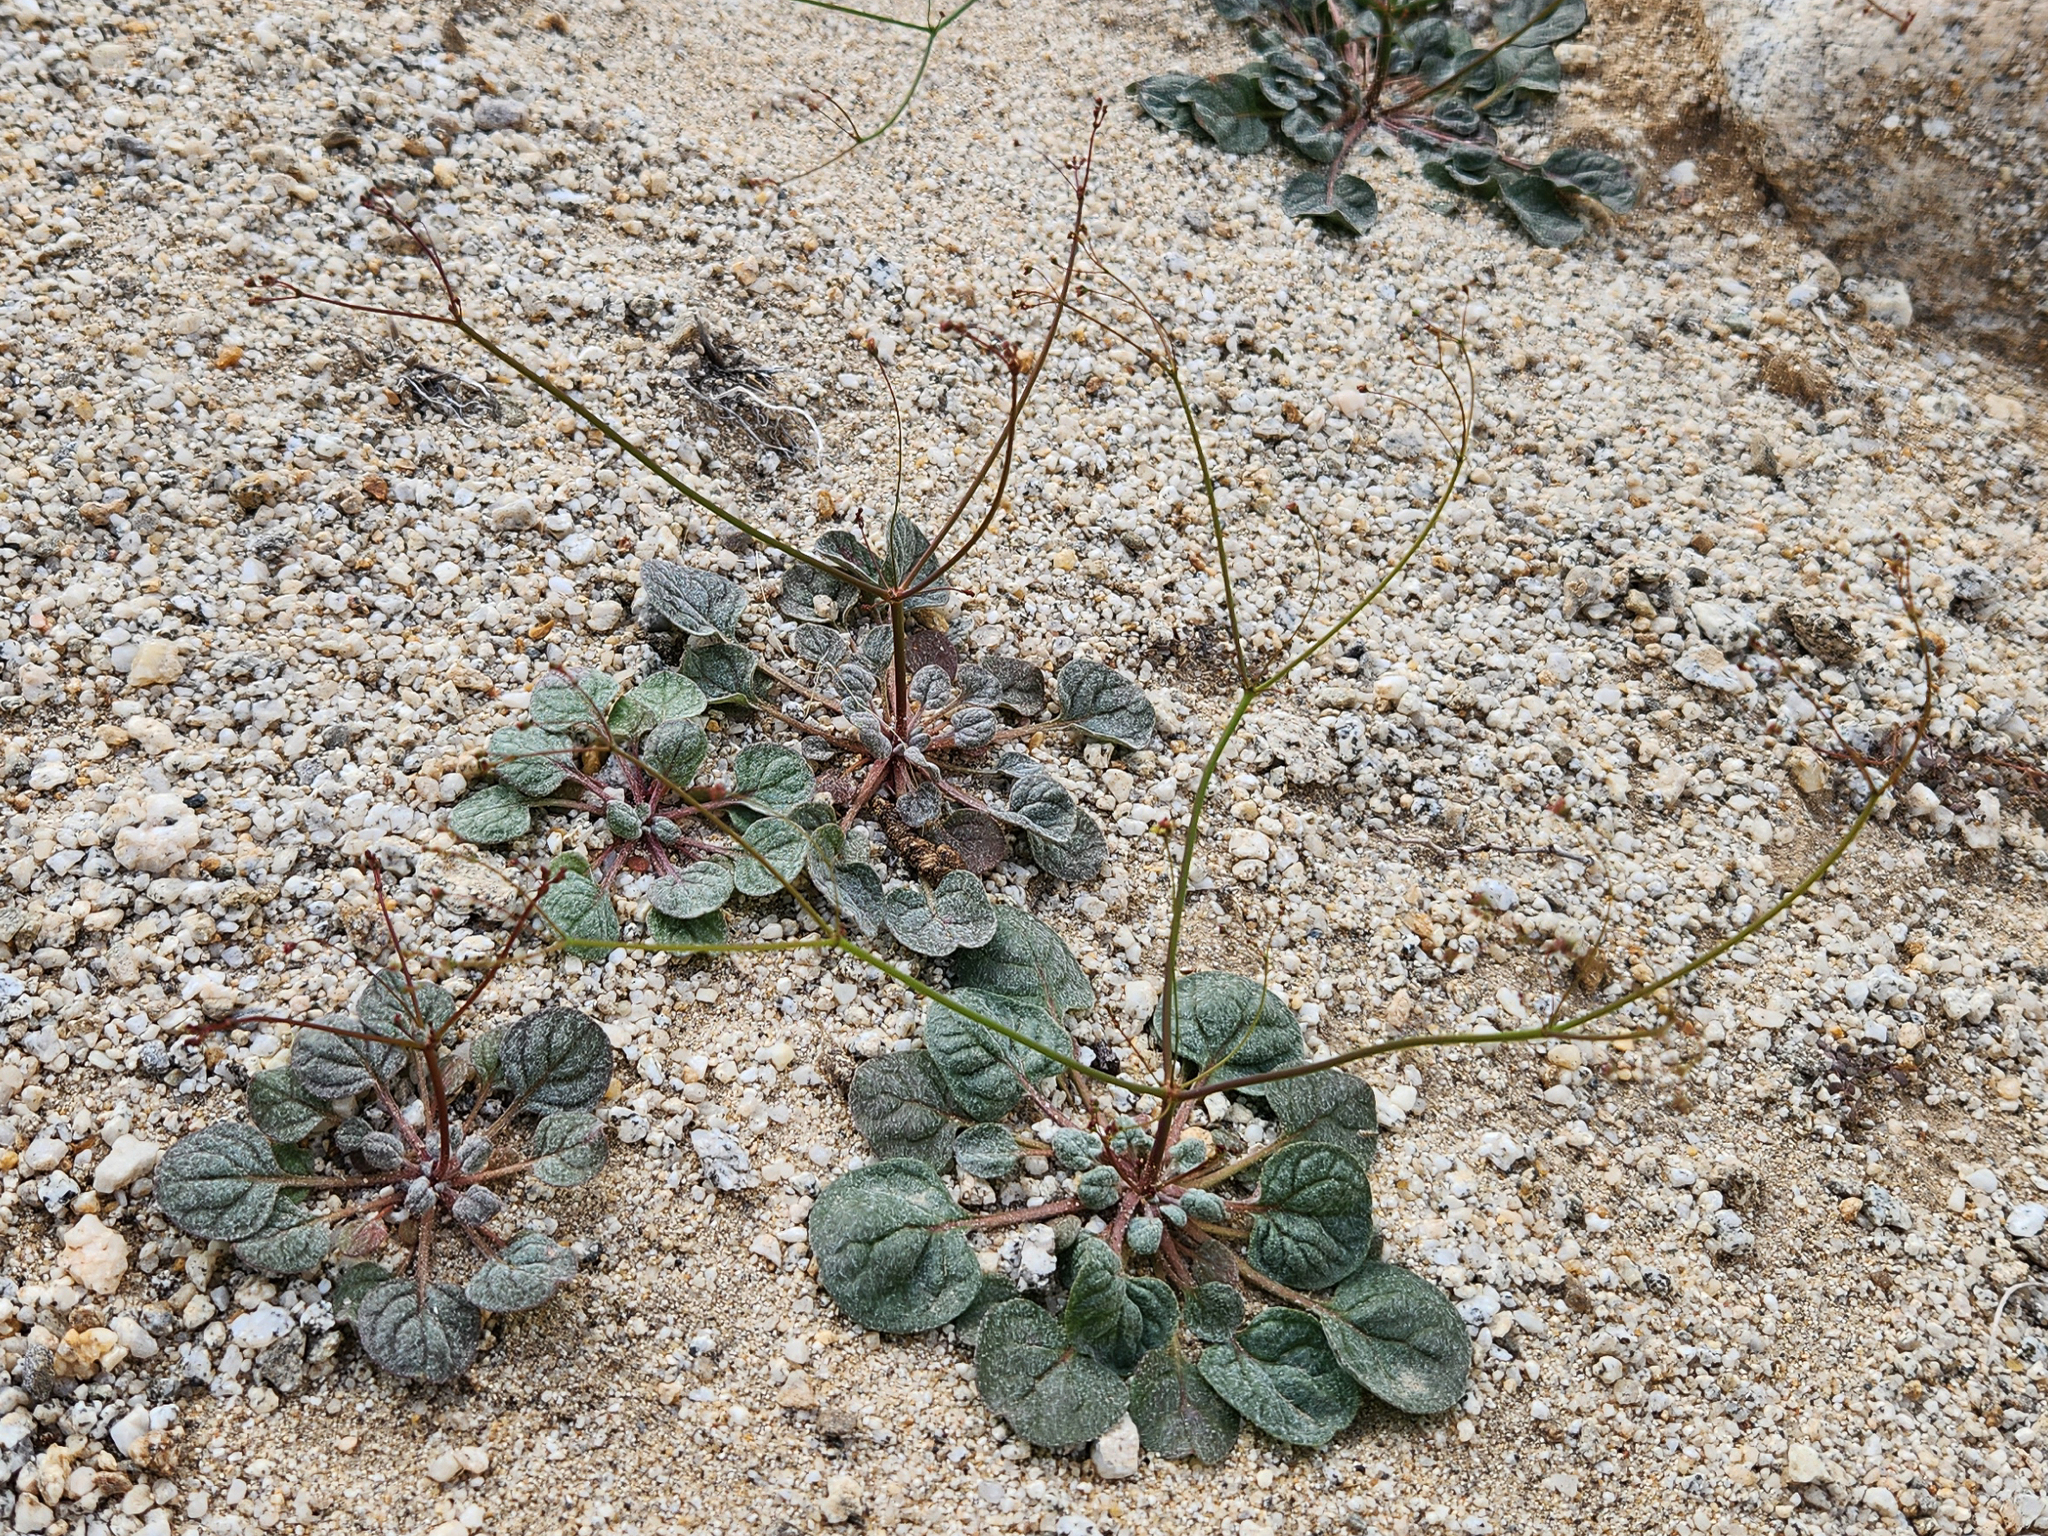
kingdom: Plantae
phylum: Tracheophyta
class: Magnoliopsida
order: Caryophyllales
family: Polygonaceae
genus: Eriogonum
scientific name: Eriogonum thomasii
